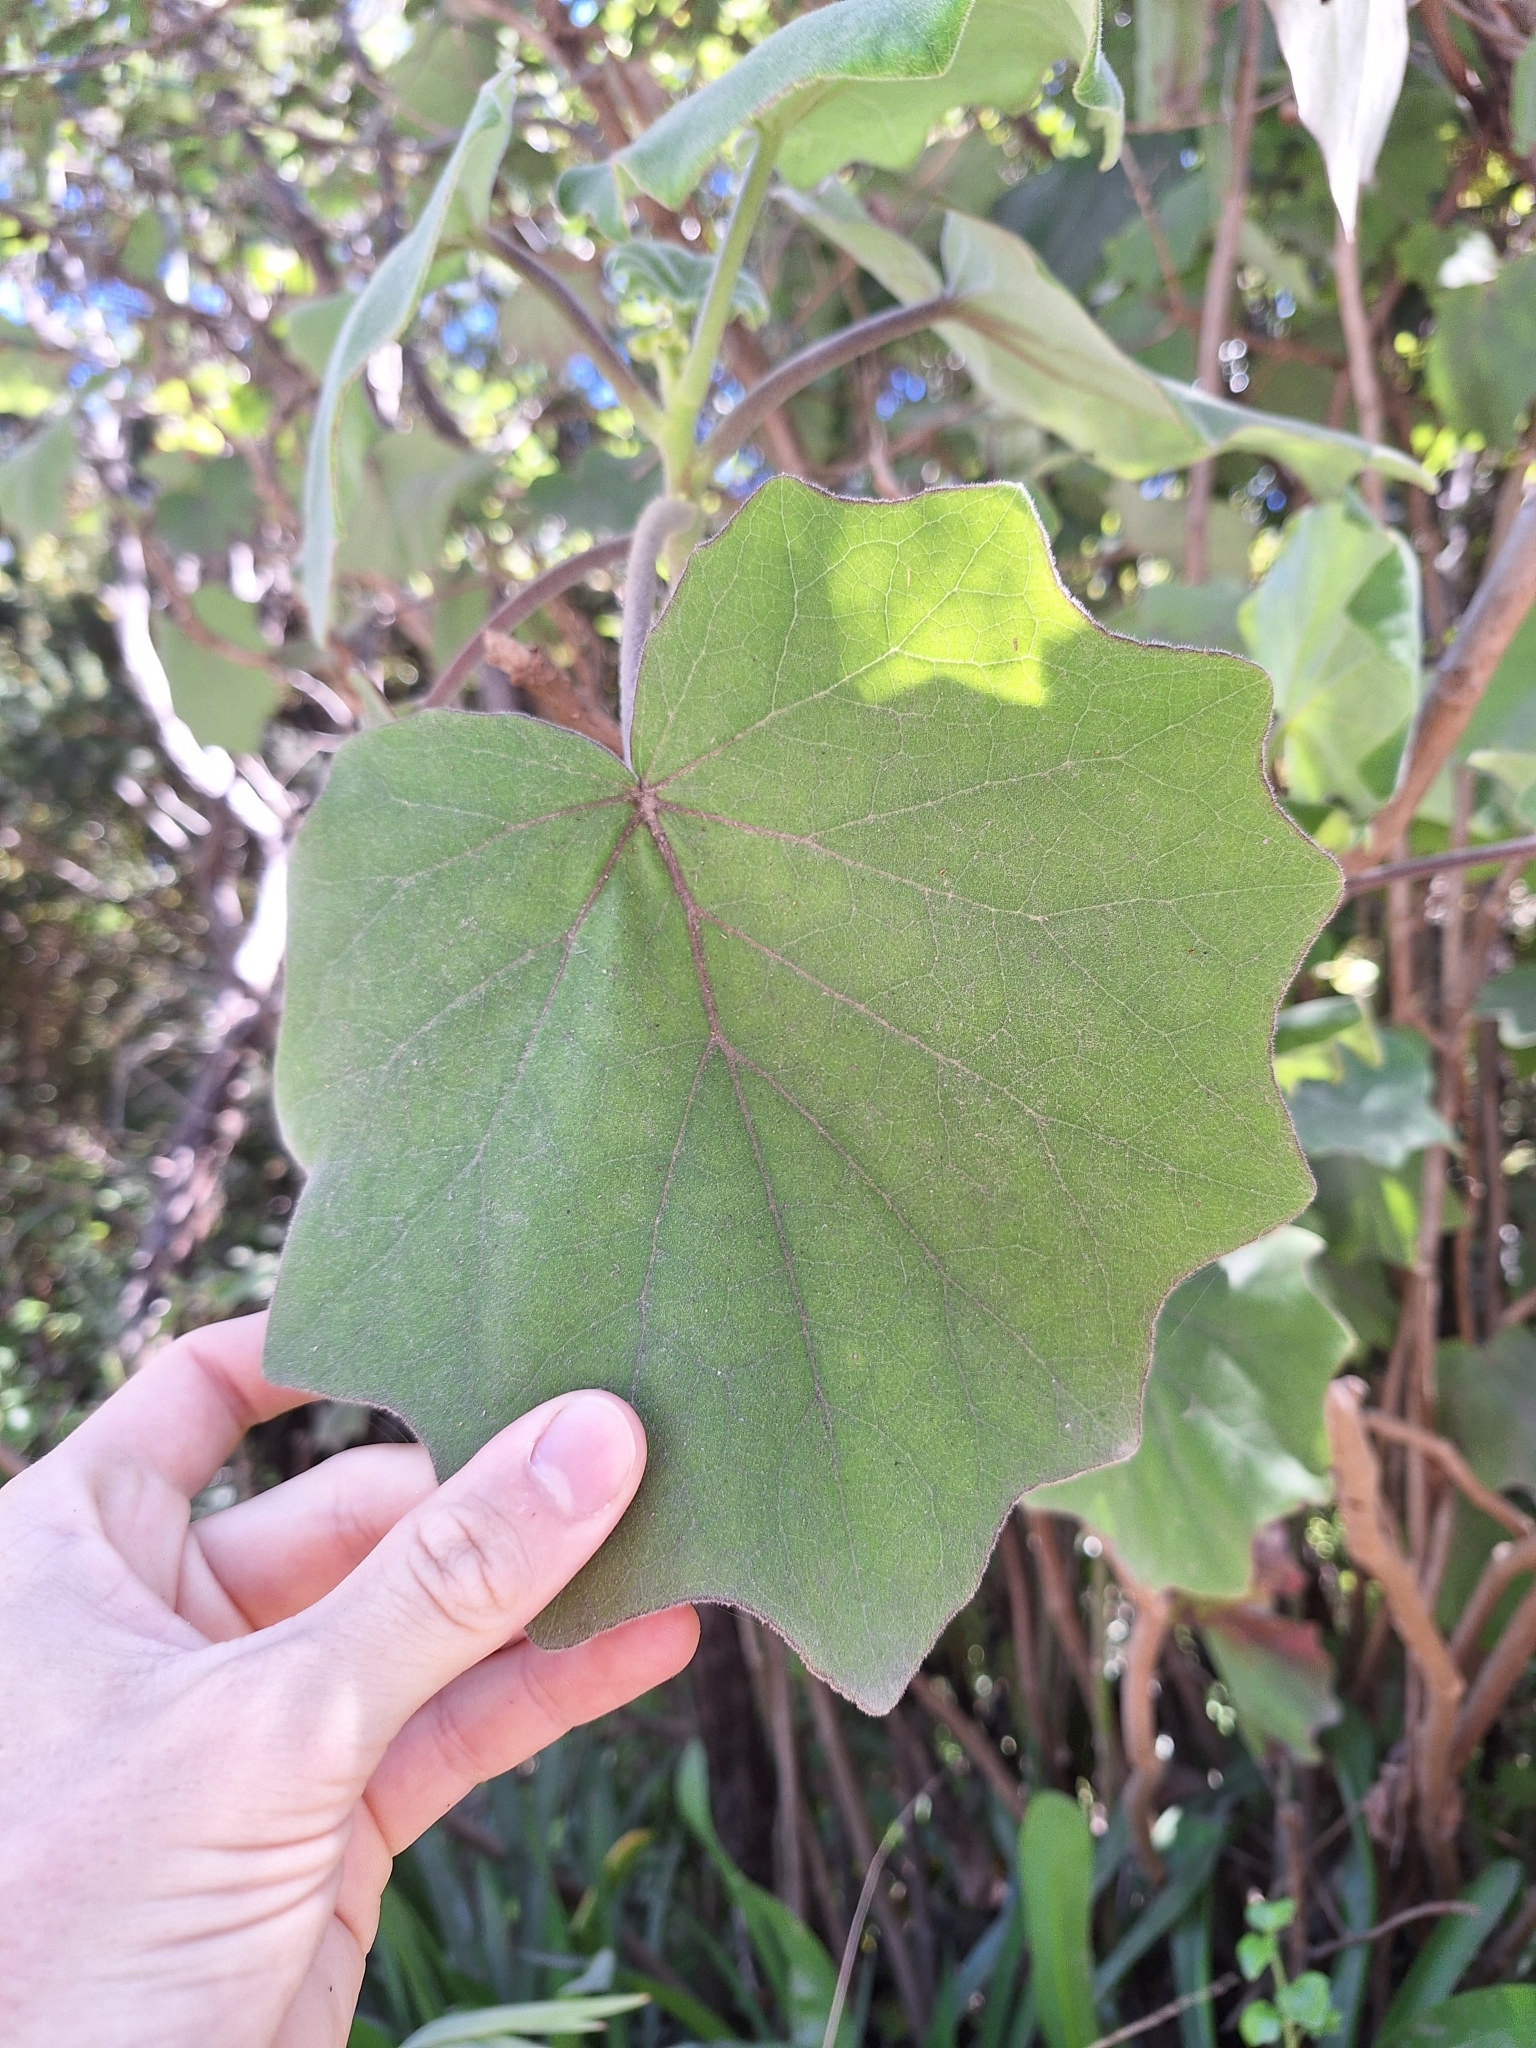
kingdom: Plantae
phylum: Tracheophyta
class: Magnoliopsida
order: Asterales
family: Asteraceae
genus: Roldana
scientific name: Roldana petasitis
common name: California-geranium
